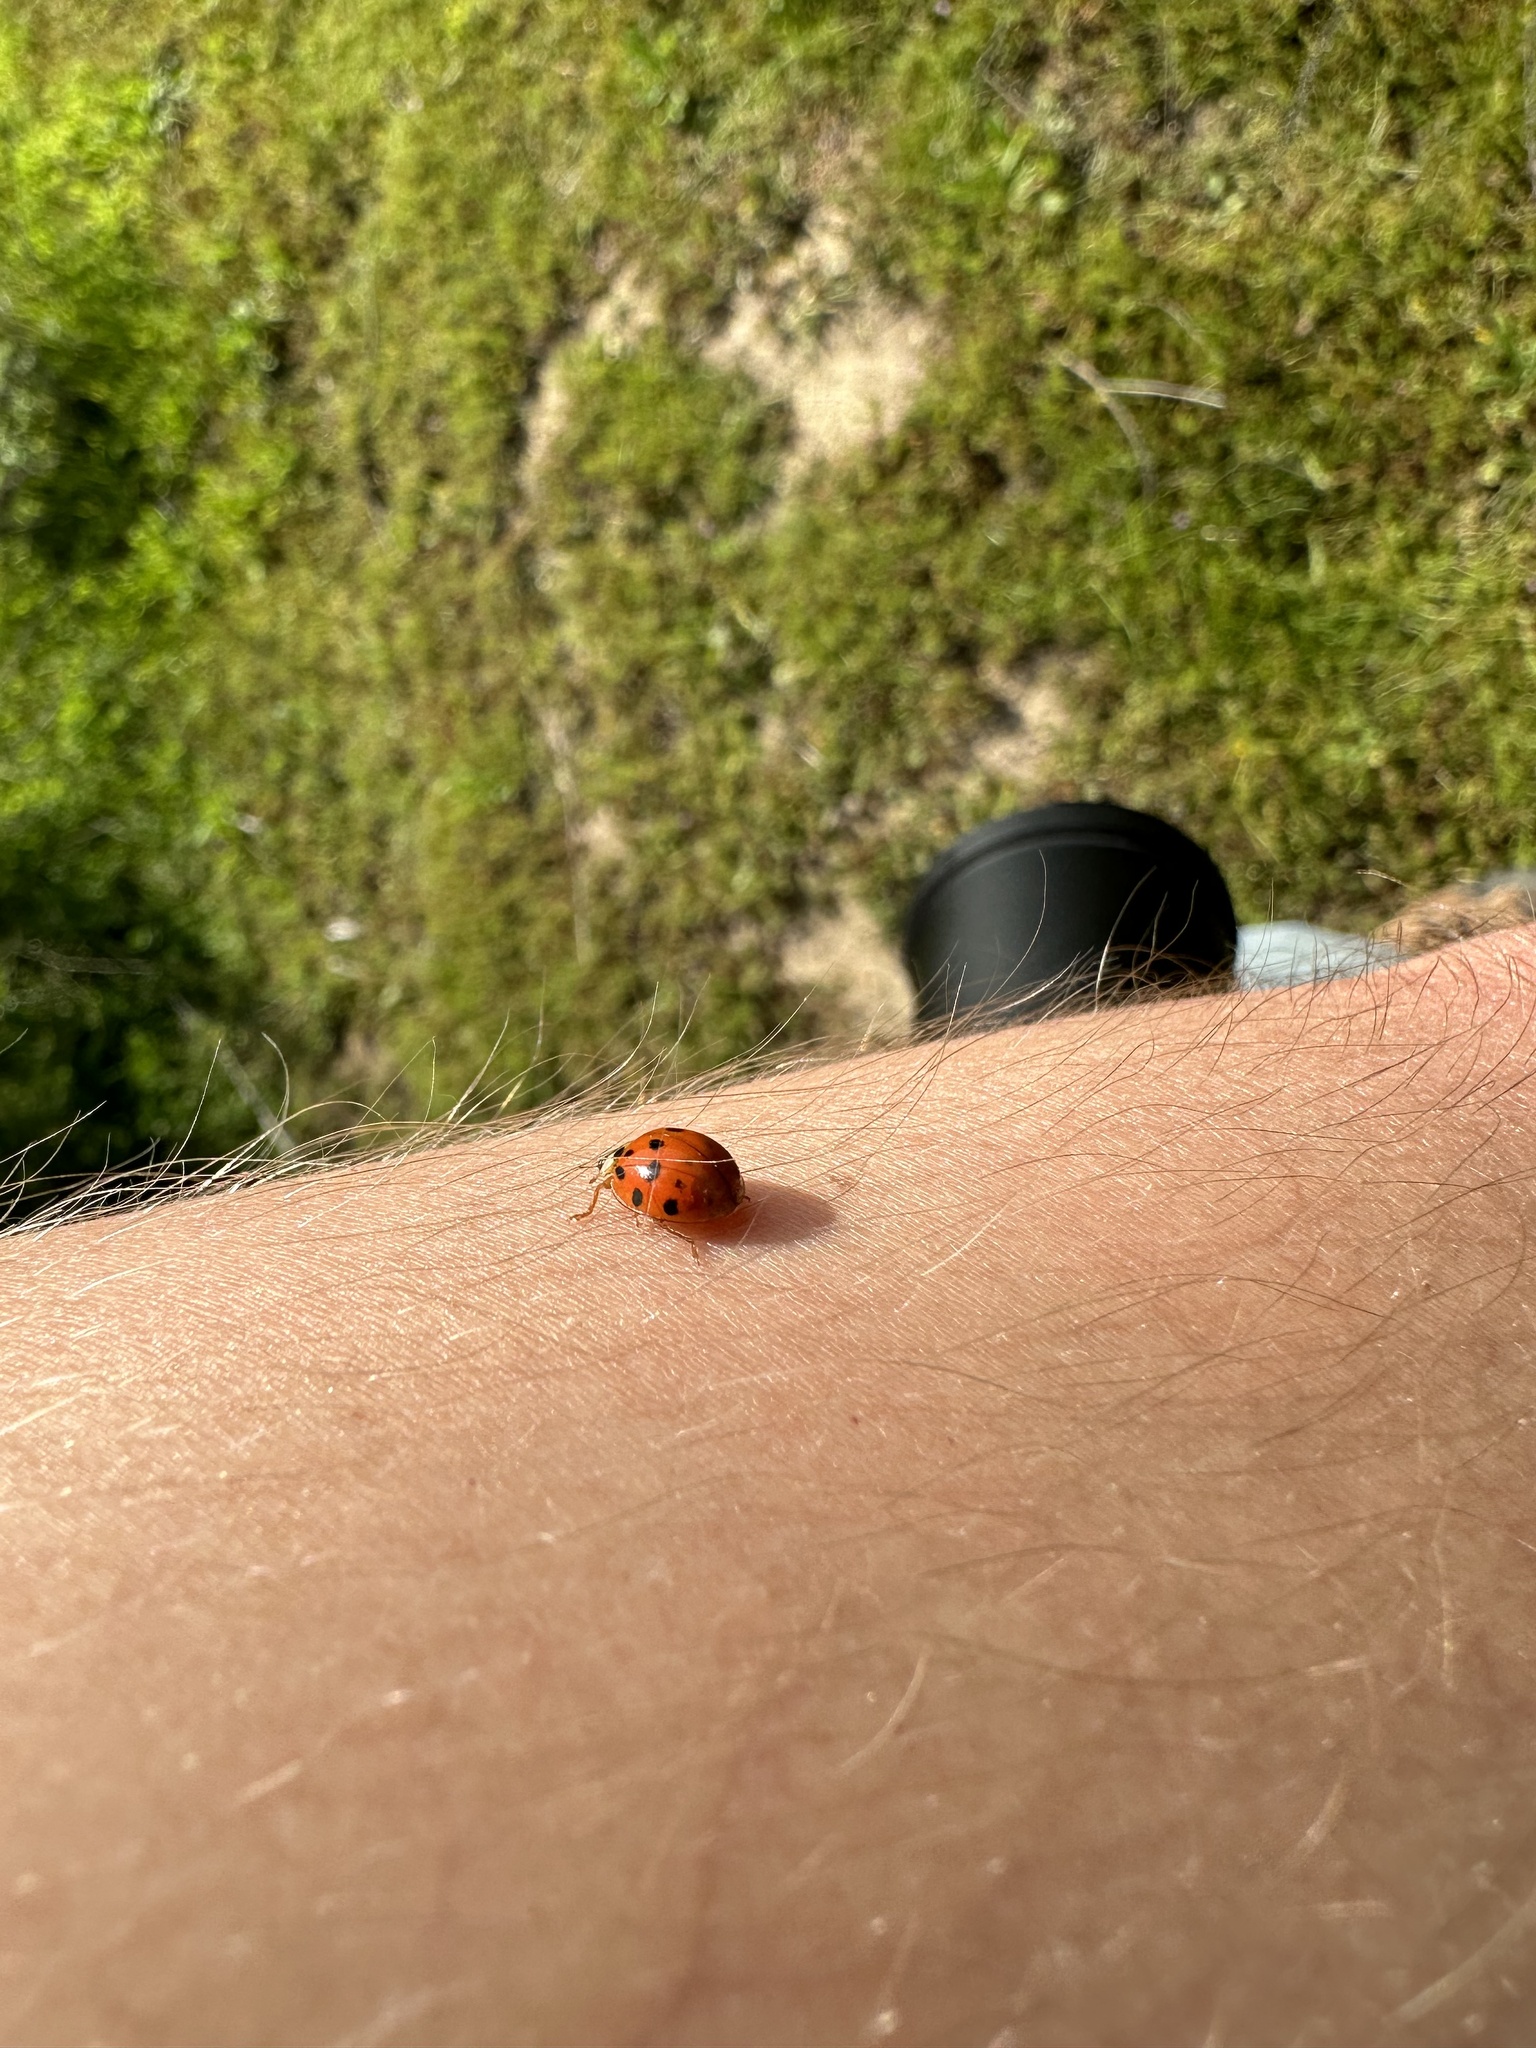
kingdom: Animalia
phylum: Arthropoda
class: Insecta
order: Coleoptera
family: Coccinellidae
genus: Harmonia
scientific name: Harmonia axyridis
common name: Harlequin ladybird
